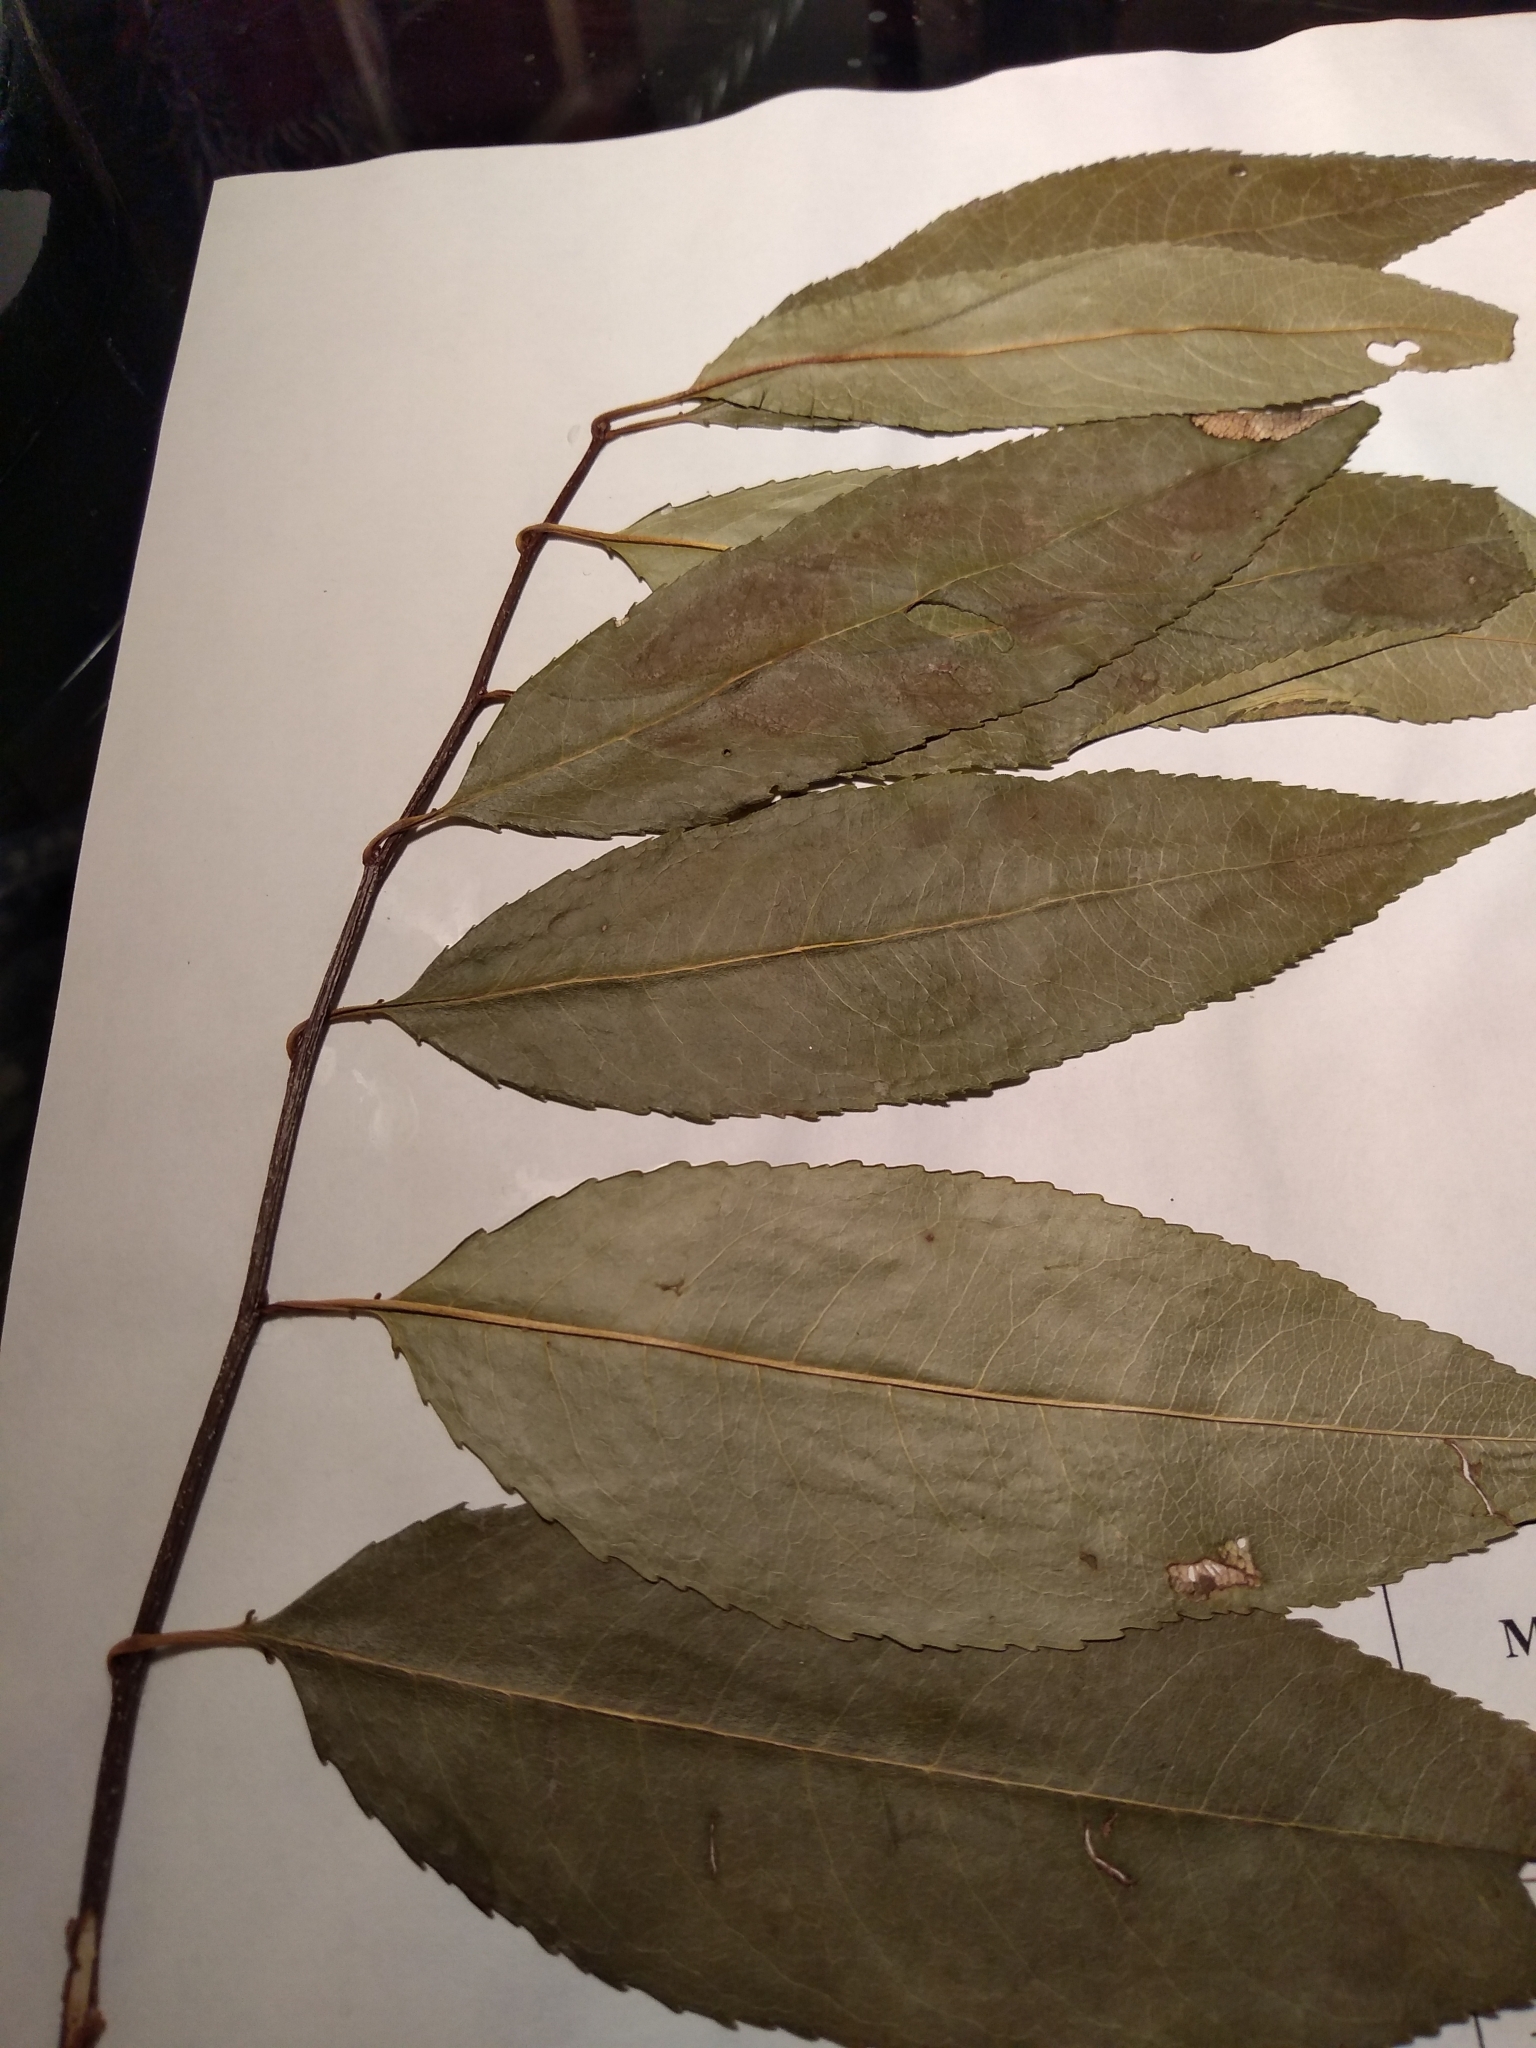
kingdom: Plantae
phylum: Tracheophyta
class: Magnoliopsida
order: Rosales
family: Rosaceae
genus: Prunus
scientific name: Prunus serotina
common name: Black cherry
